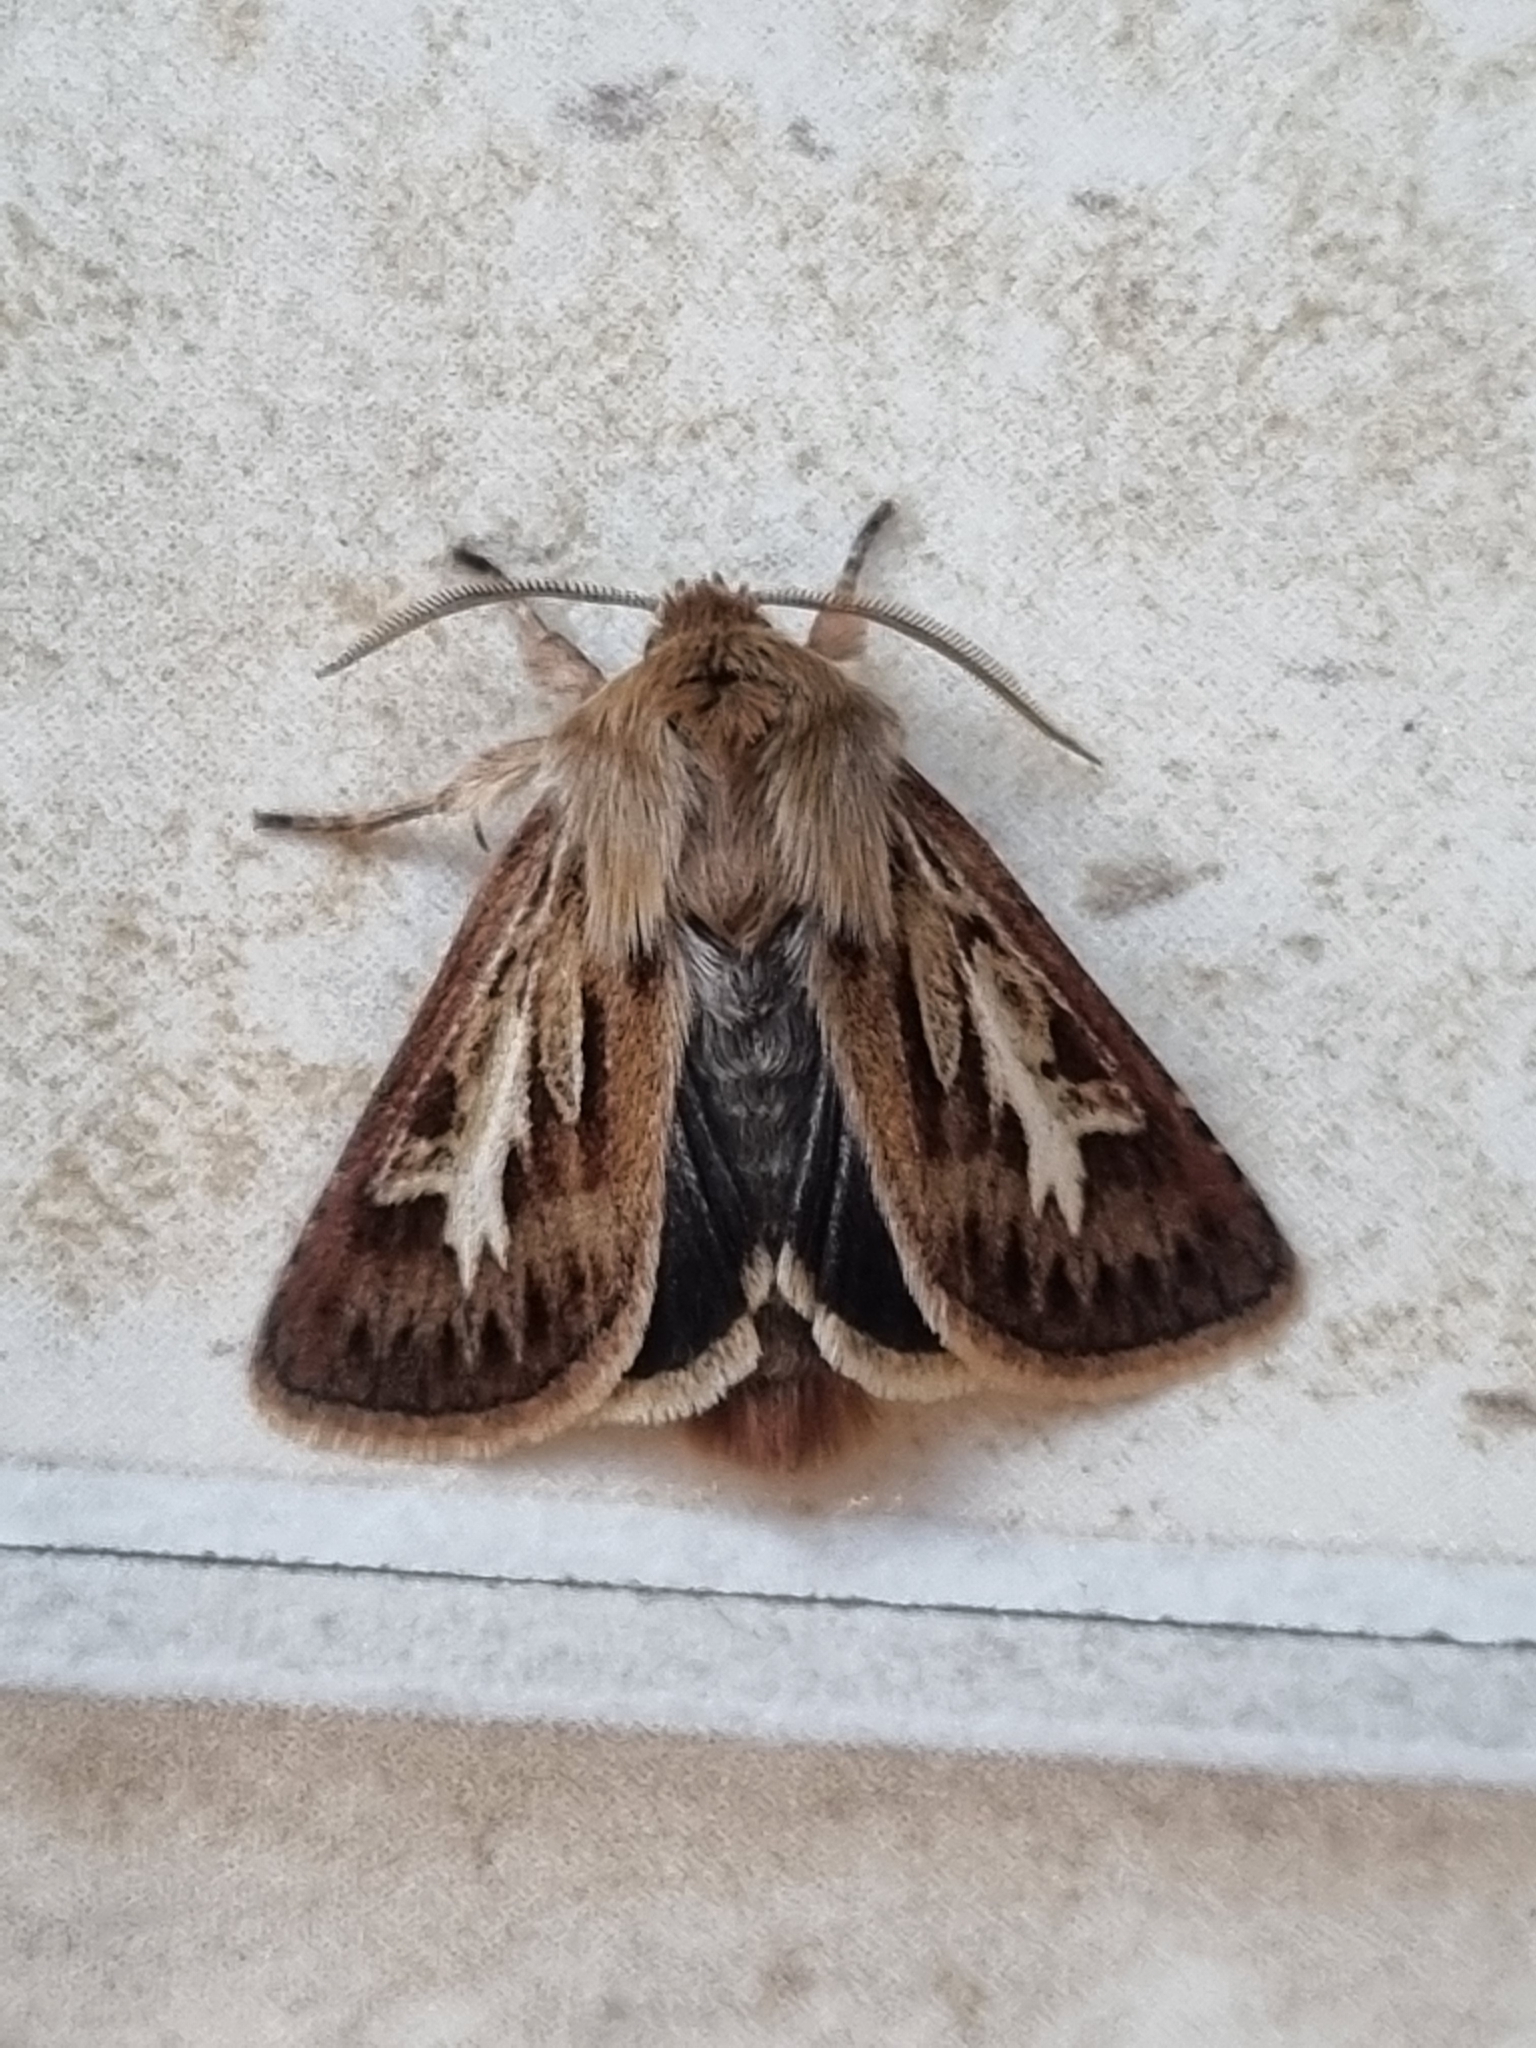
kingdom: Animalia
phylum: Arthropoda
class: Insecta
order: Lepidoptera
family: Noctuidae
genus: Cerapteryx
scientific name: Cerapteryx graminis
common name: Antler moth
